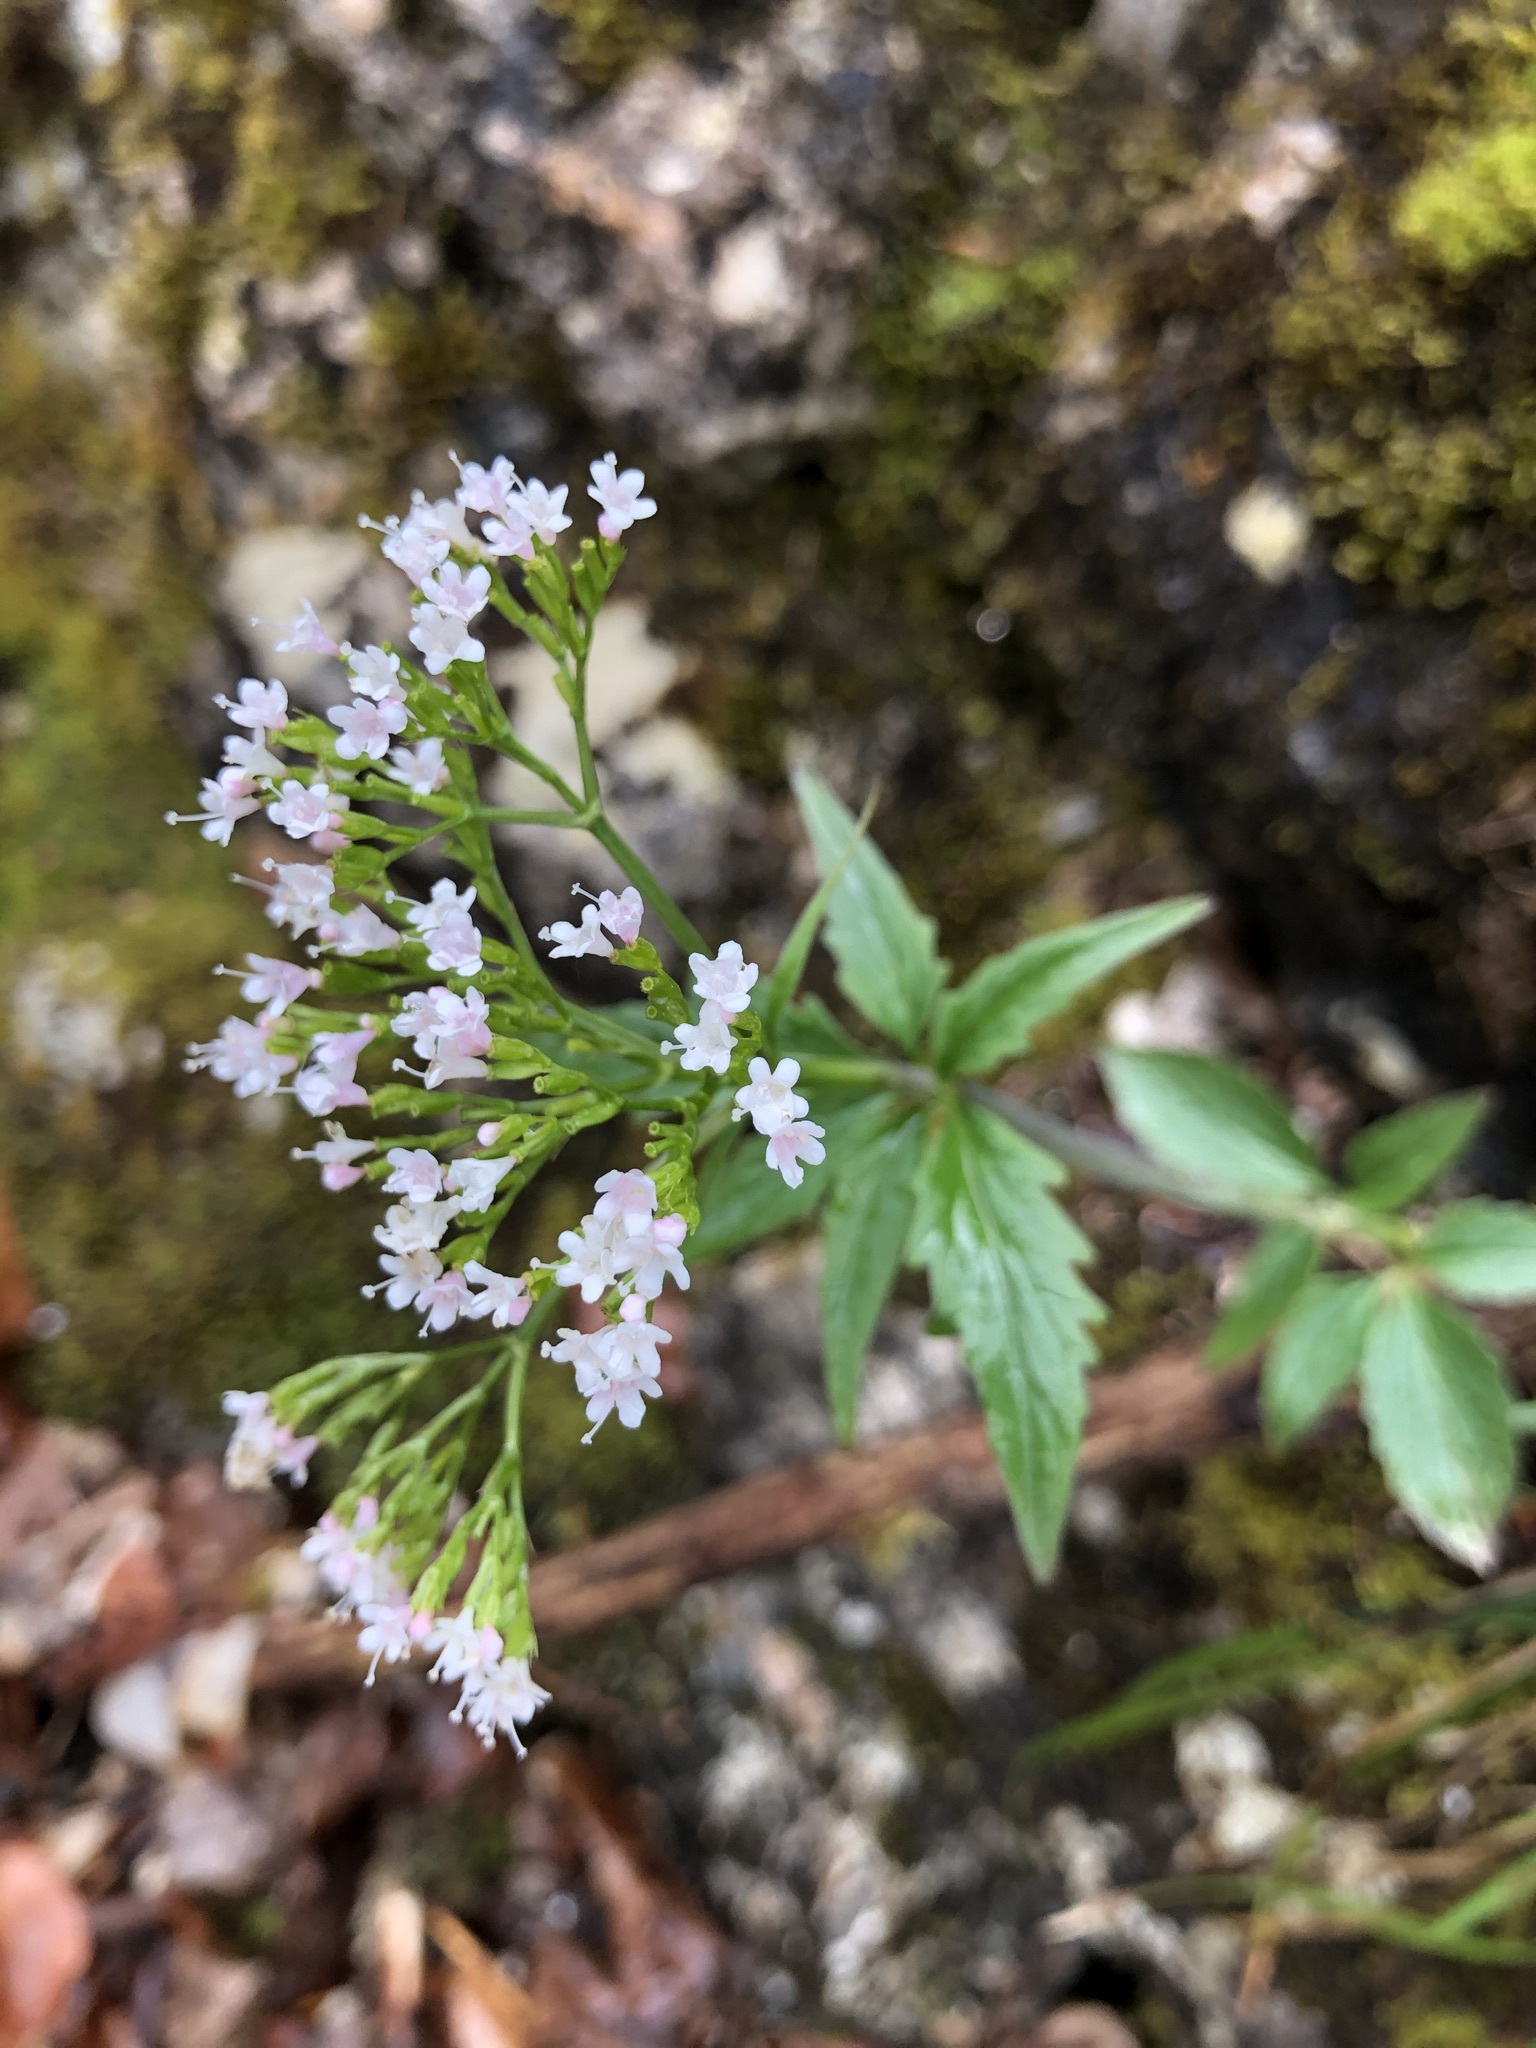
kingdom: Plantae
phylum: Tracheophyta
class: Magnoliopsida
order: Dipsacales
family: Caprifoliaceae
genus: Valeriana
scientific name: Valeriana tripteris
